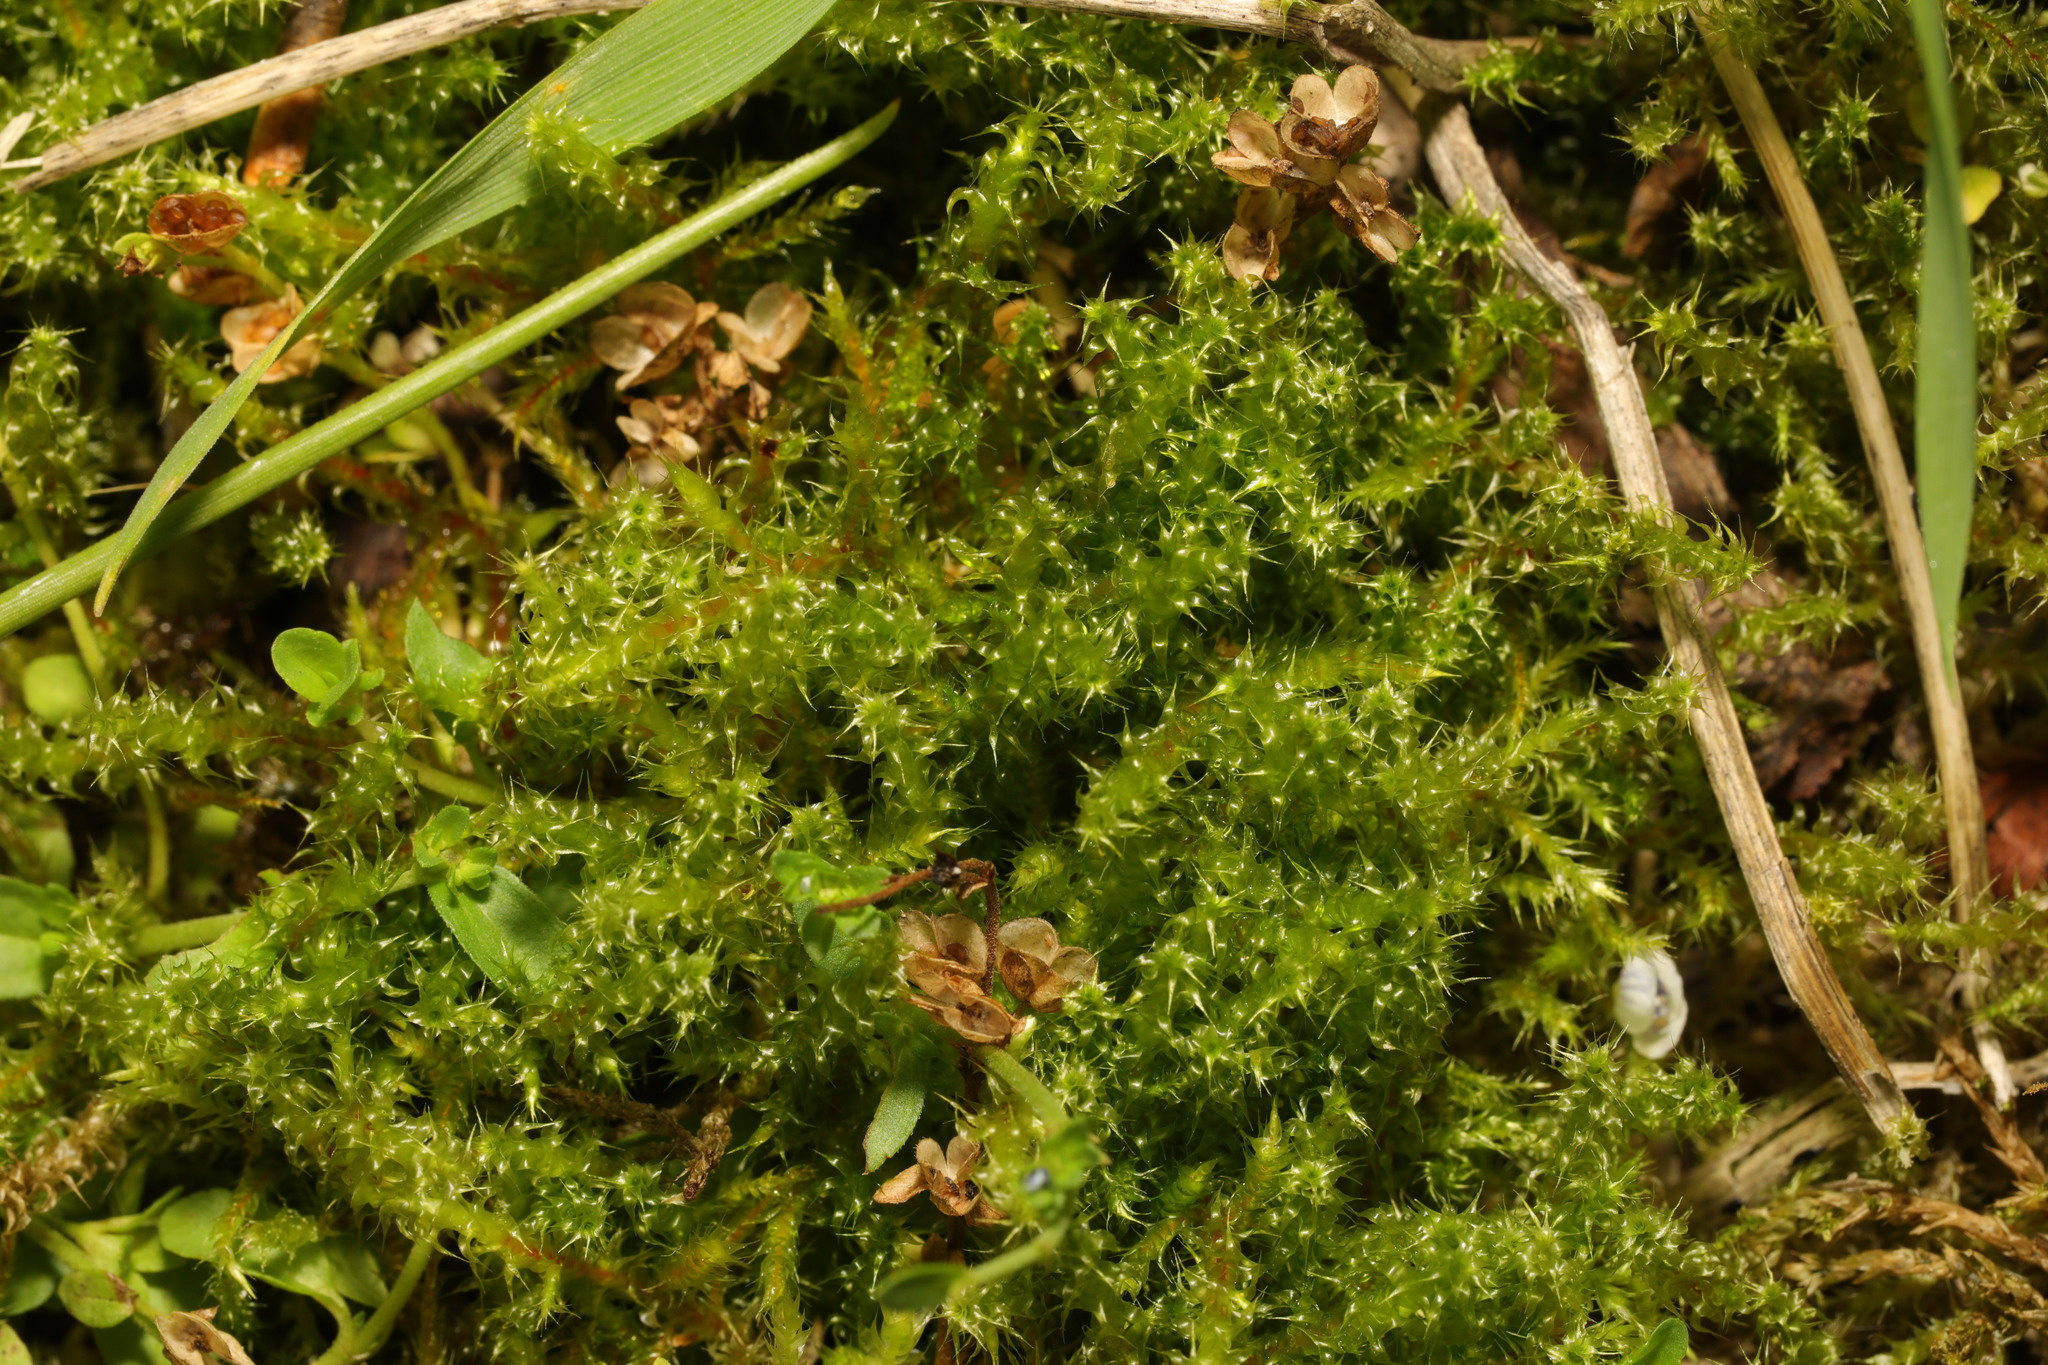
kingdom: Plantae
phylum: Bryophyta
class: Bryopsida
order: Hypnales
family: Hylocomiaceae
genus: Rhytidiadelphus
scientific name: Rhytidiadelphus squarrosus
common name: Springy turf-moss
